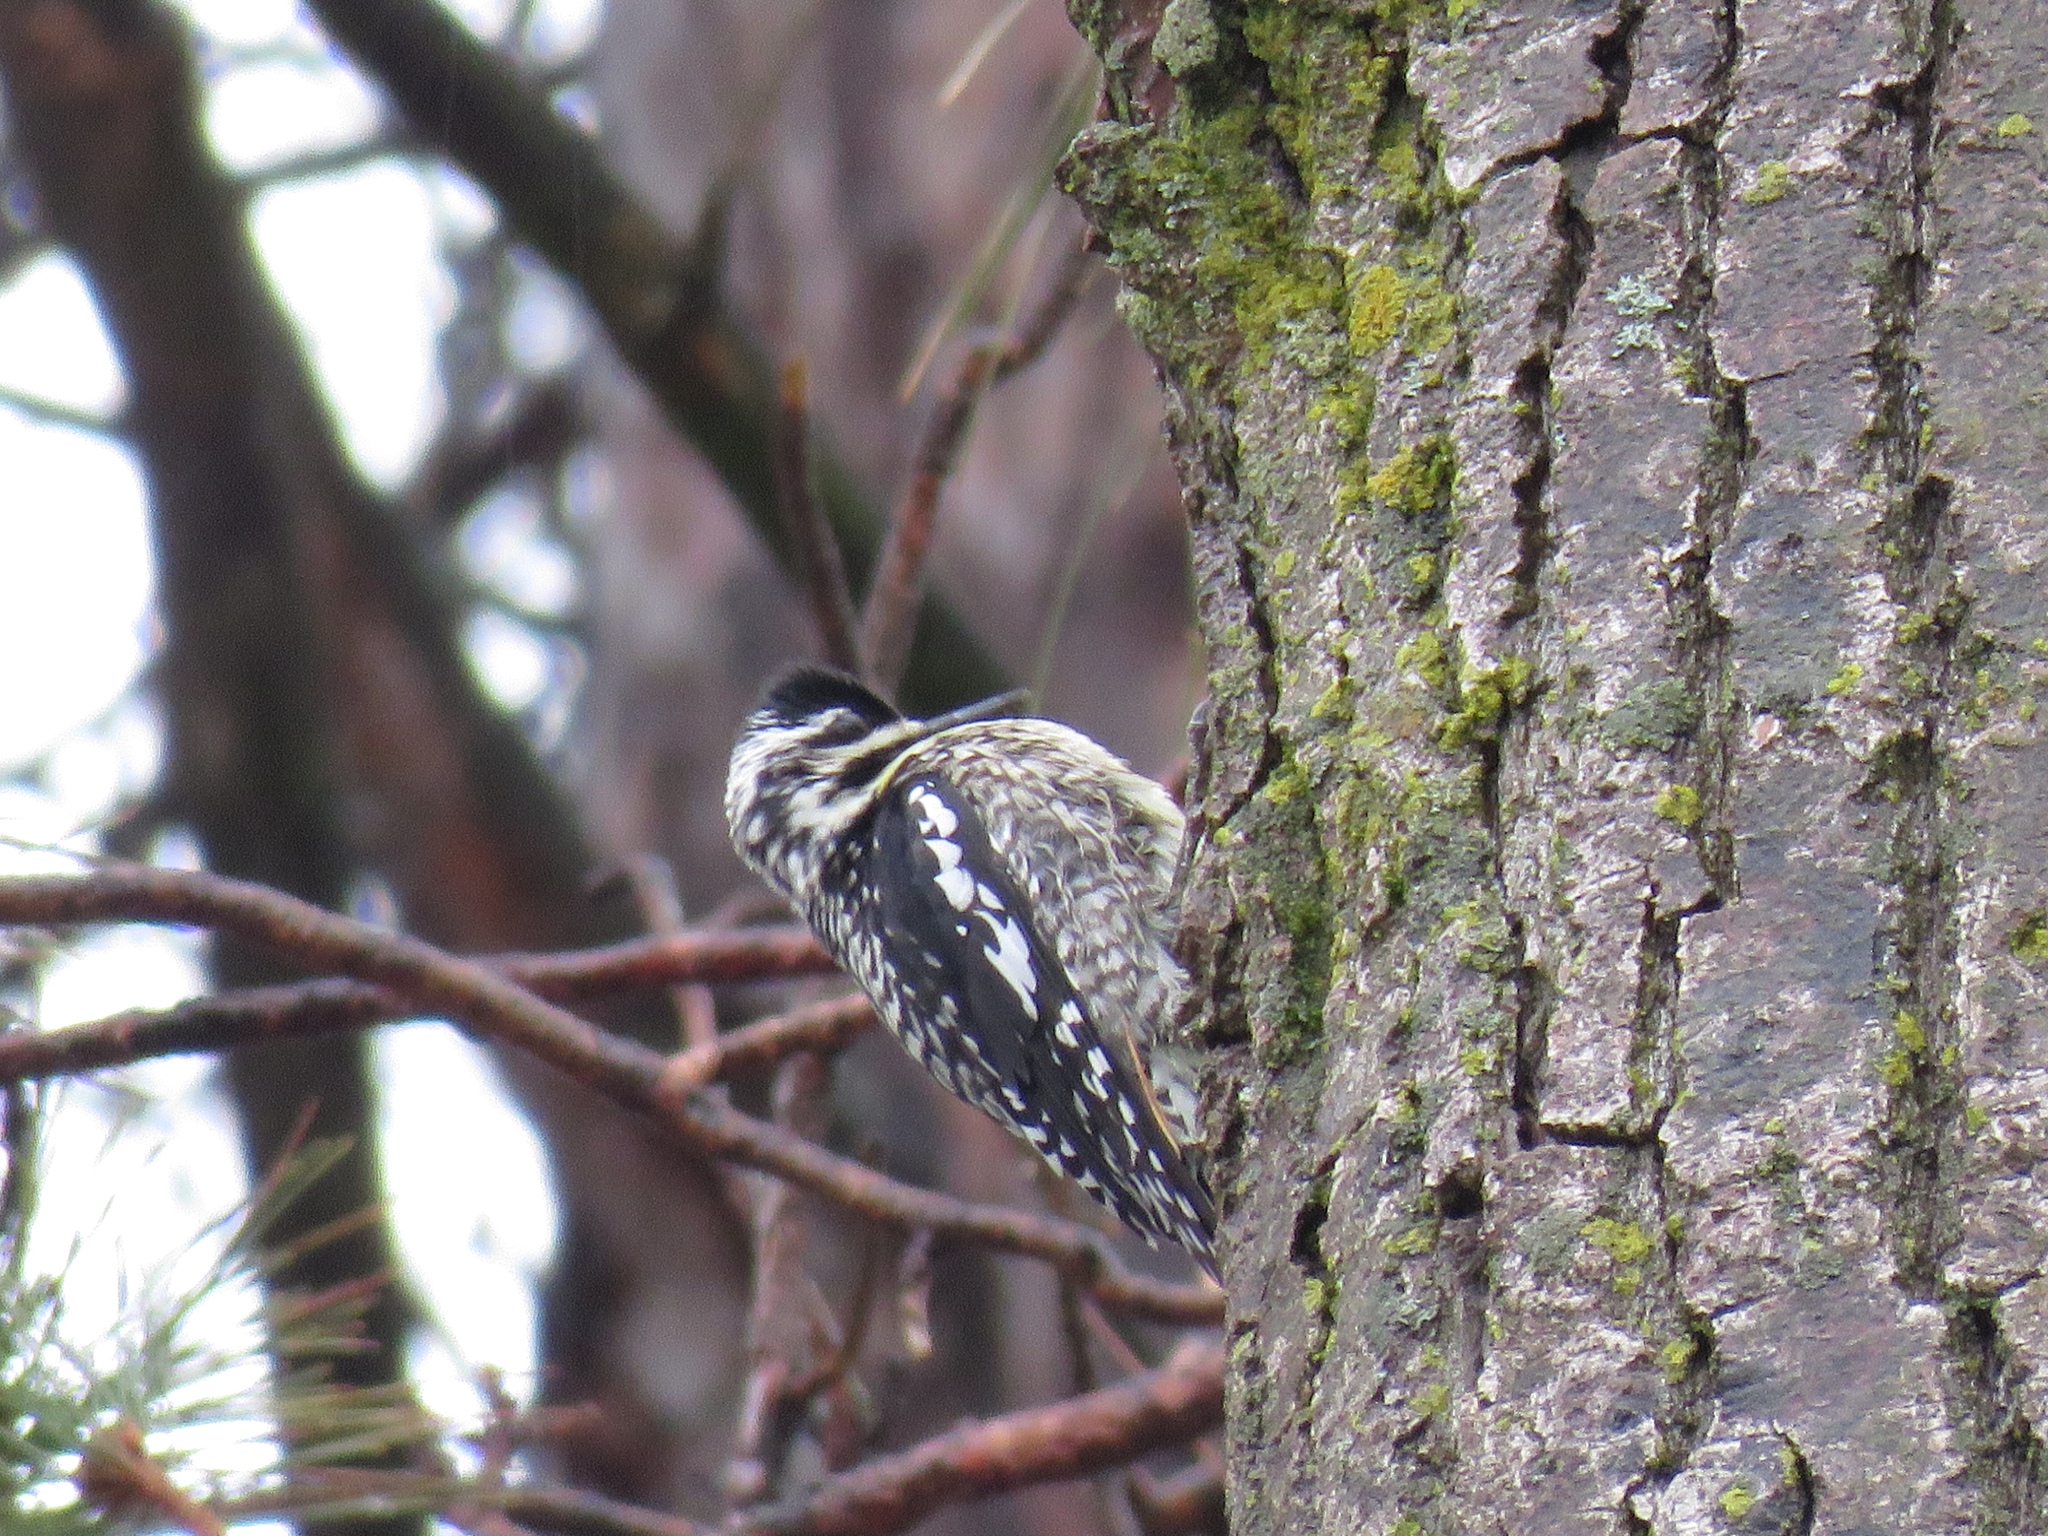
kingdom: Animalia
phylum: Chordata
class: Aves
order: Piciformes
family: Picidae
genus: Sphyrapicus
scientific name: Sphyrapicus varius
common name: Yellow-bellied sapsucker
